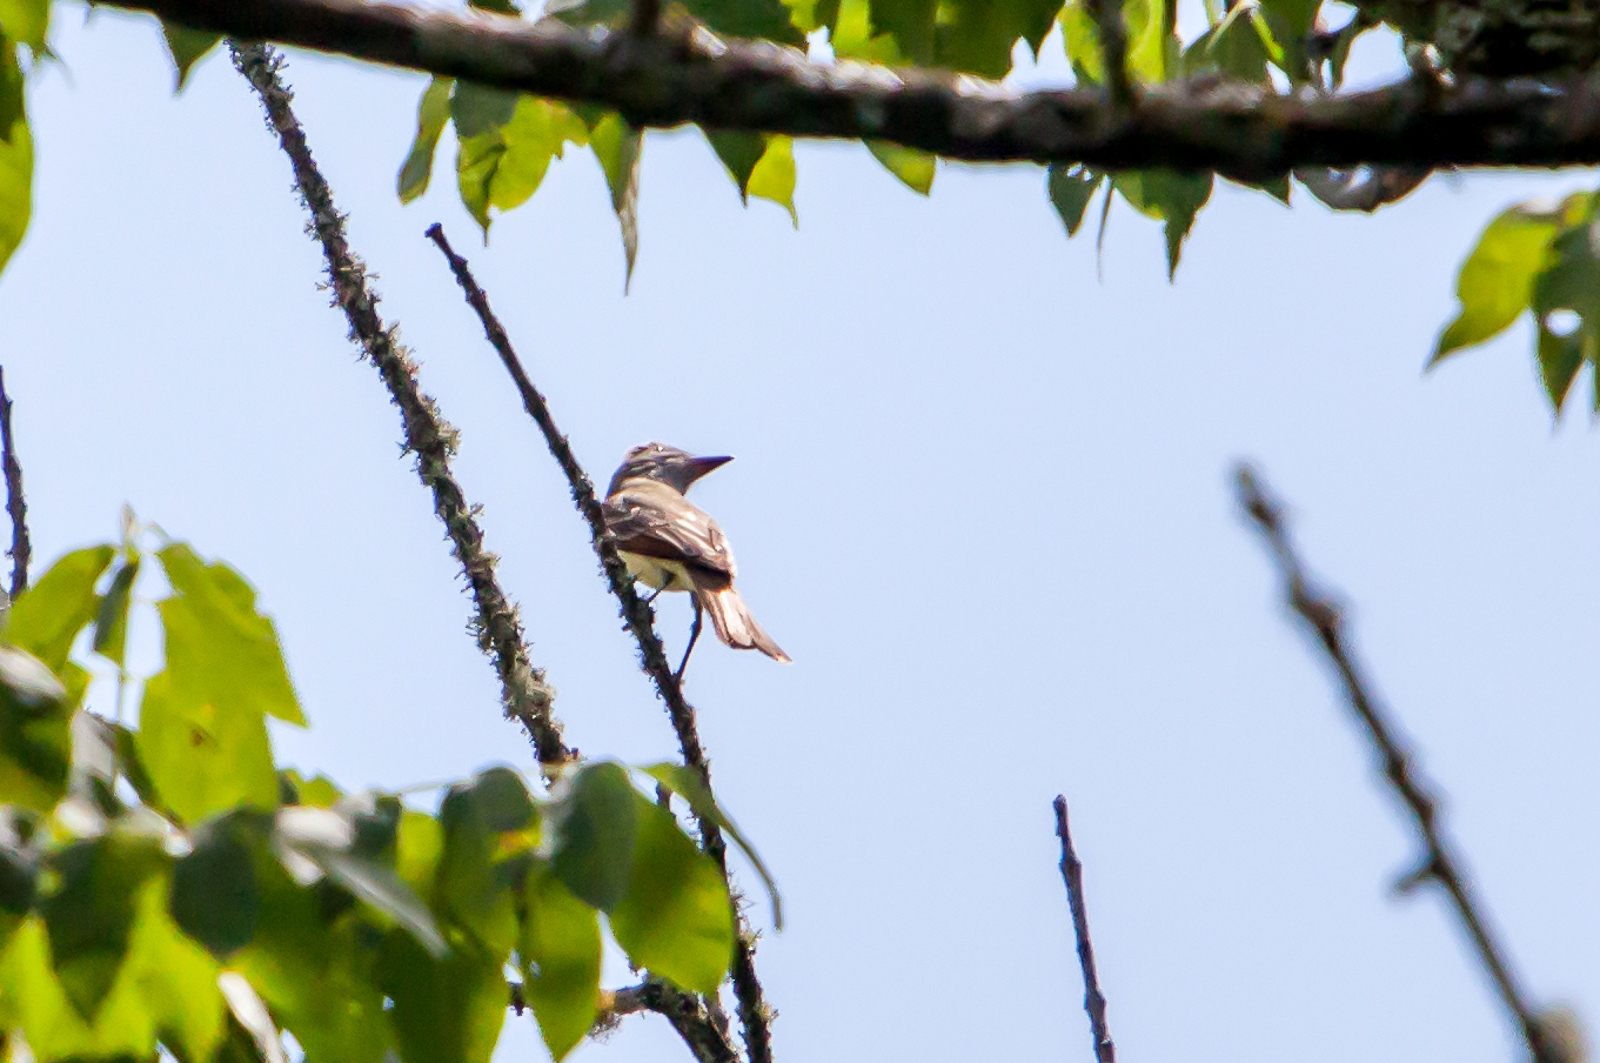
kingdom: Animalia
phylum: Chordata
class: Aves
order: Passeriformes
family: Tyrannidae
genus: Myiarchus
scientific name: Myiarchus crinitus
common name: Great crested flycatcher
